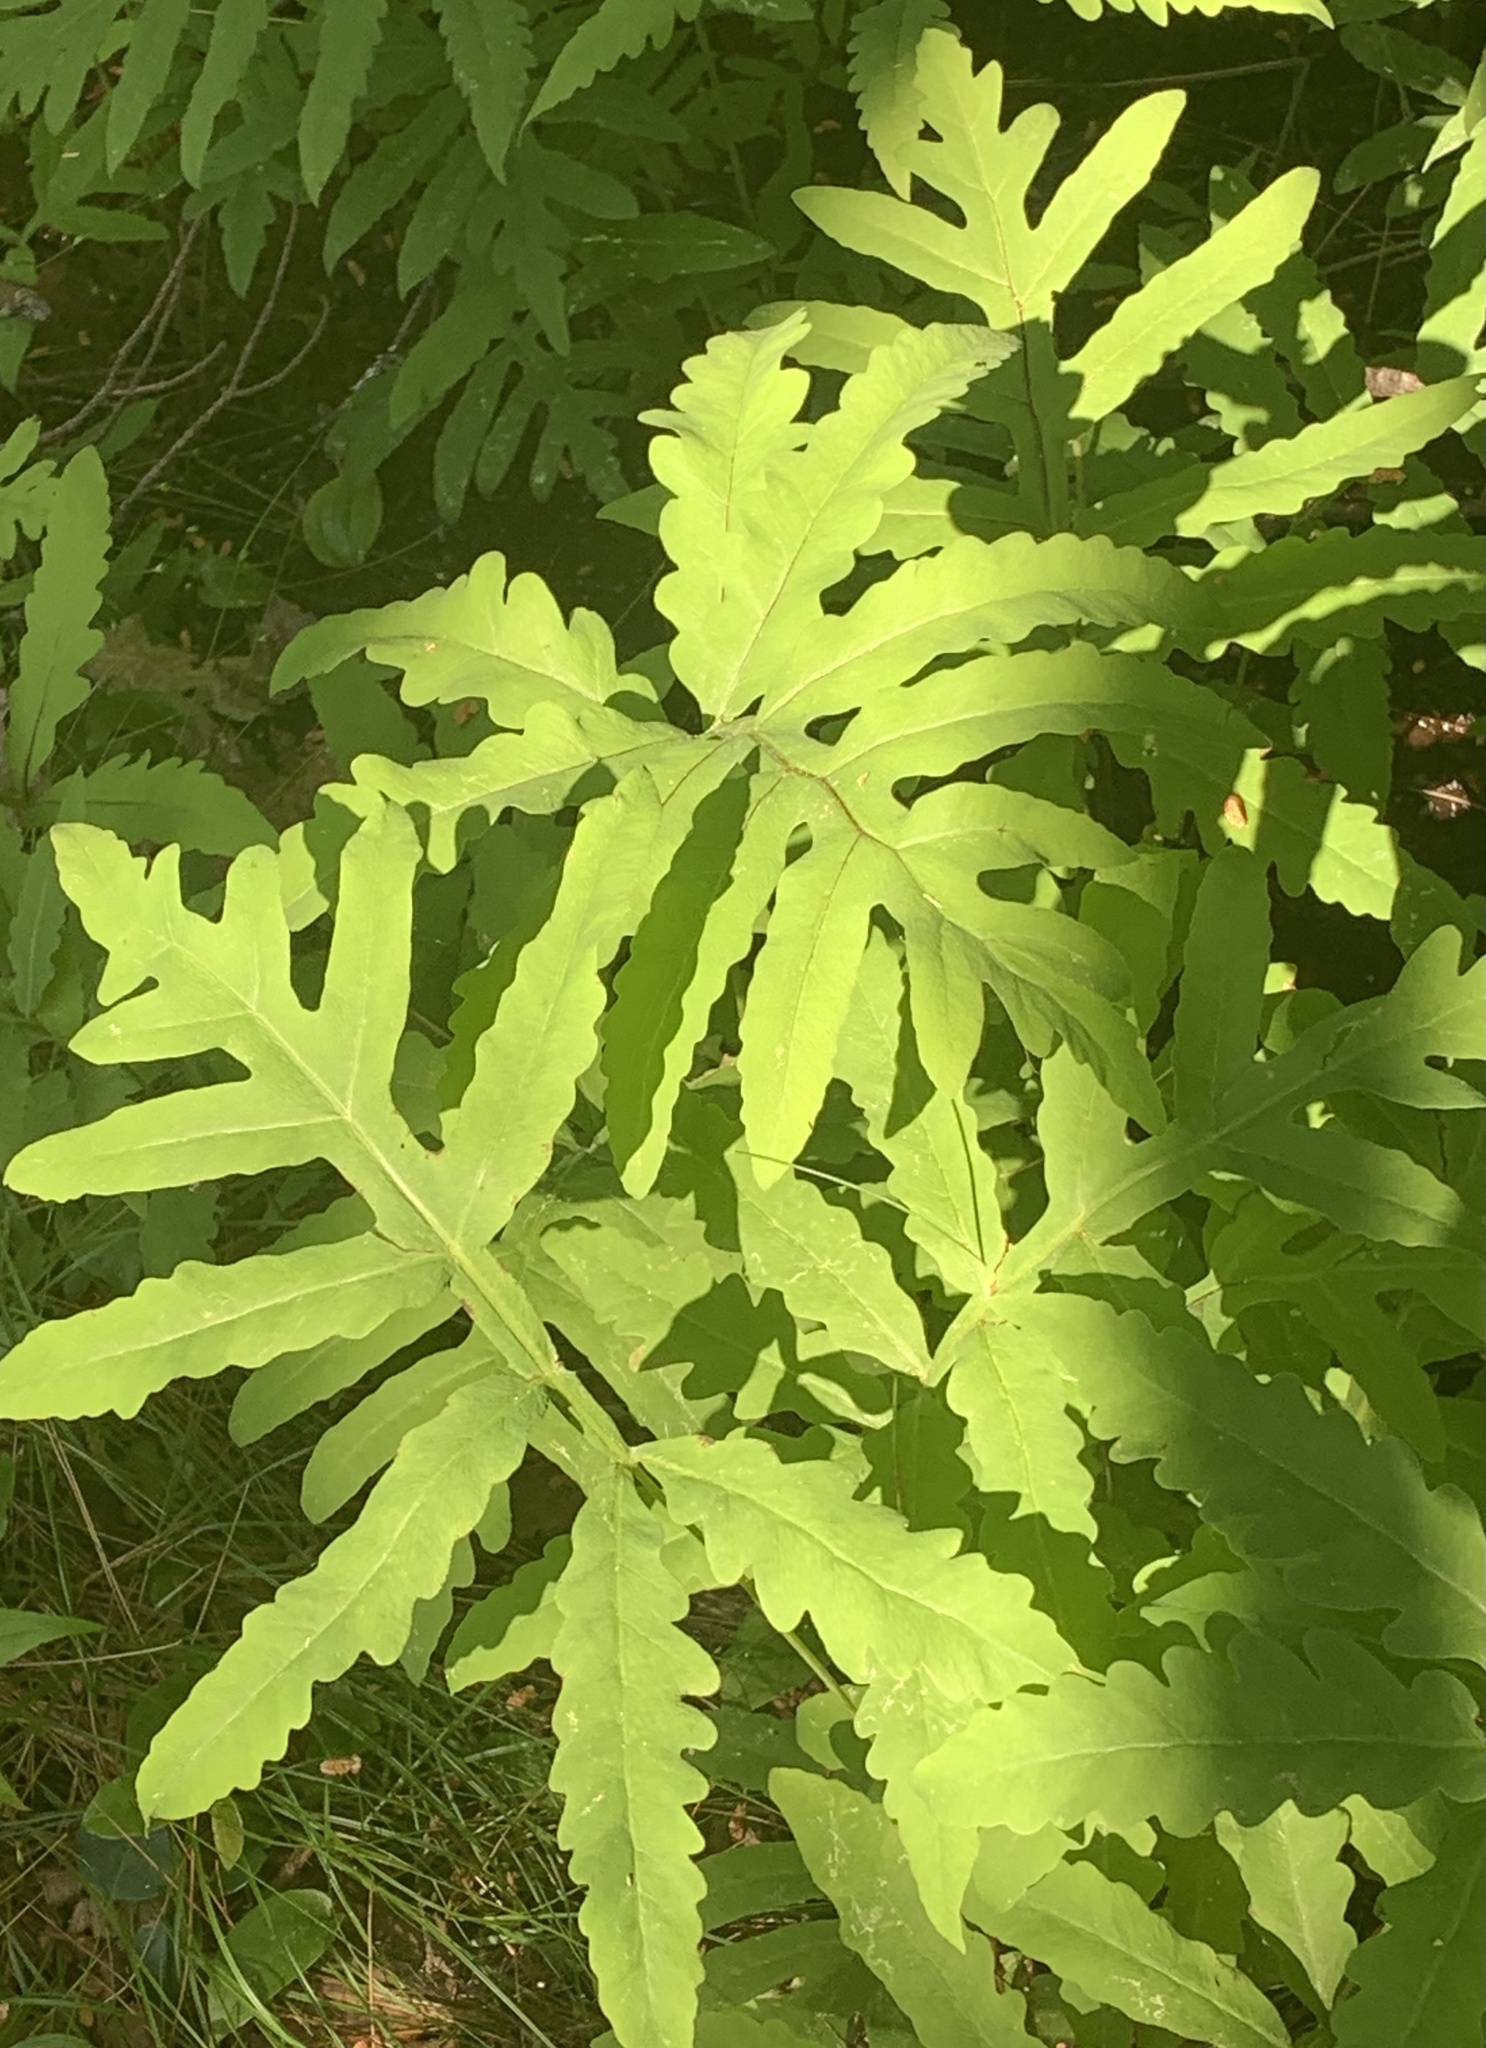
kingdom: Plantae
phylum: Tracheophyta
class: Polypodiopsida
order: Polypodiales
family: Onocleaceae
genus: Onoclea
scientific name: Onoclea sensibilis
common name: Sensitive fern
